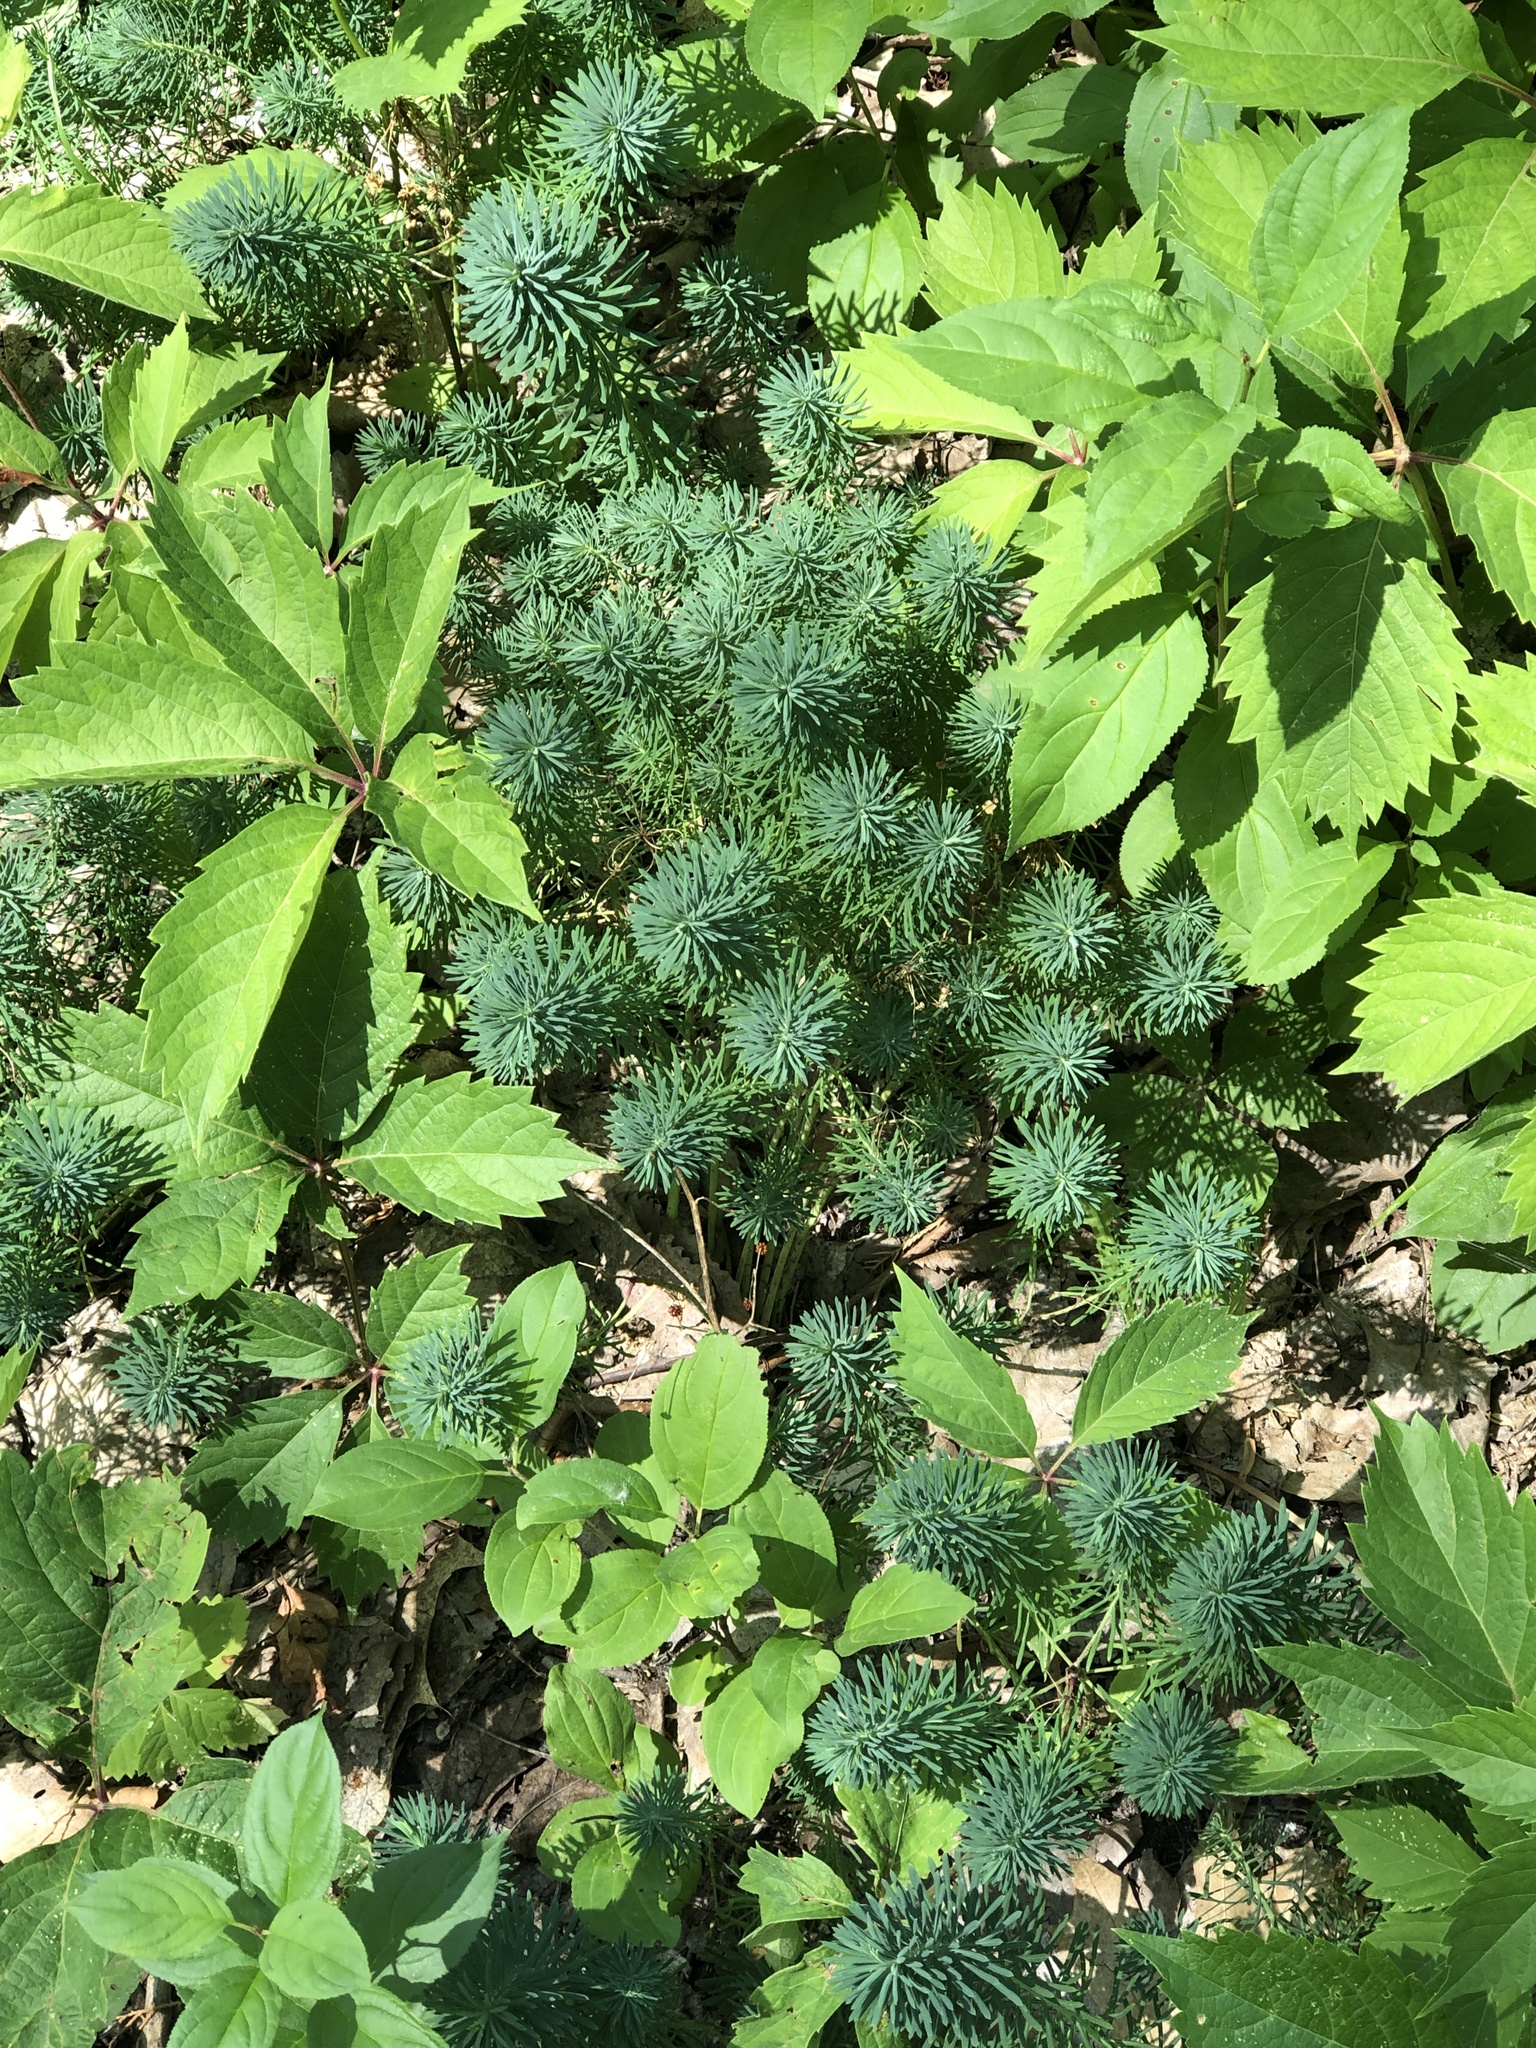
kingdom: Plantae
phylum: Tracheophyta
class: Magnoliopsida
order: Malpighiales
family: Euphorbiaceae
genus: Euphorbia
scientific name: Euphorbia cyparissias
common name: Cypress spurge
